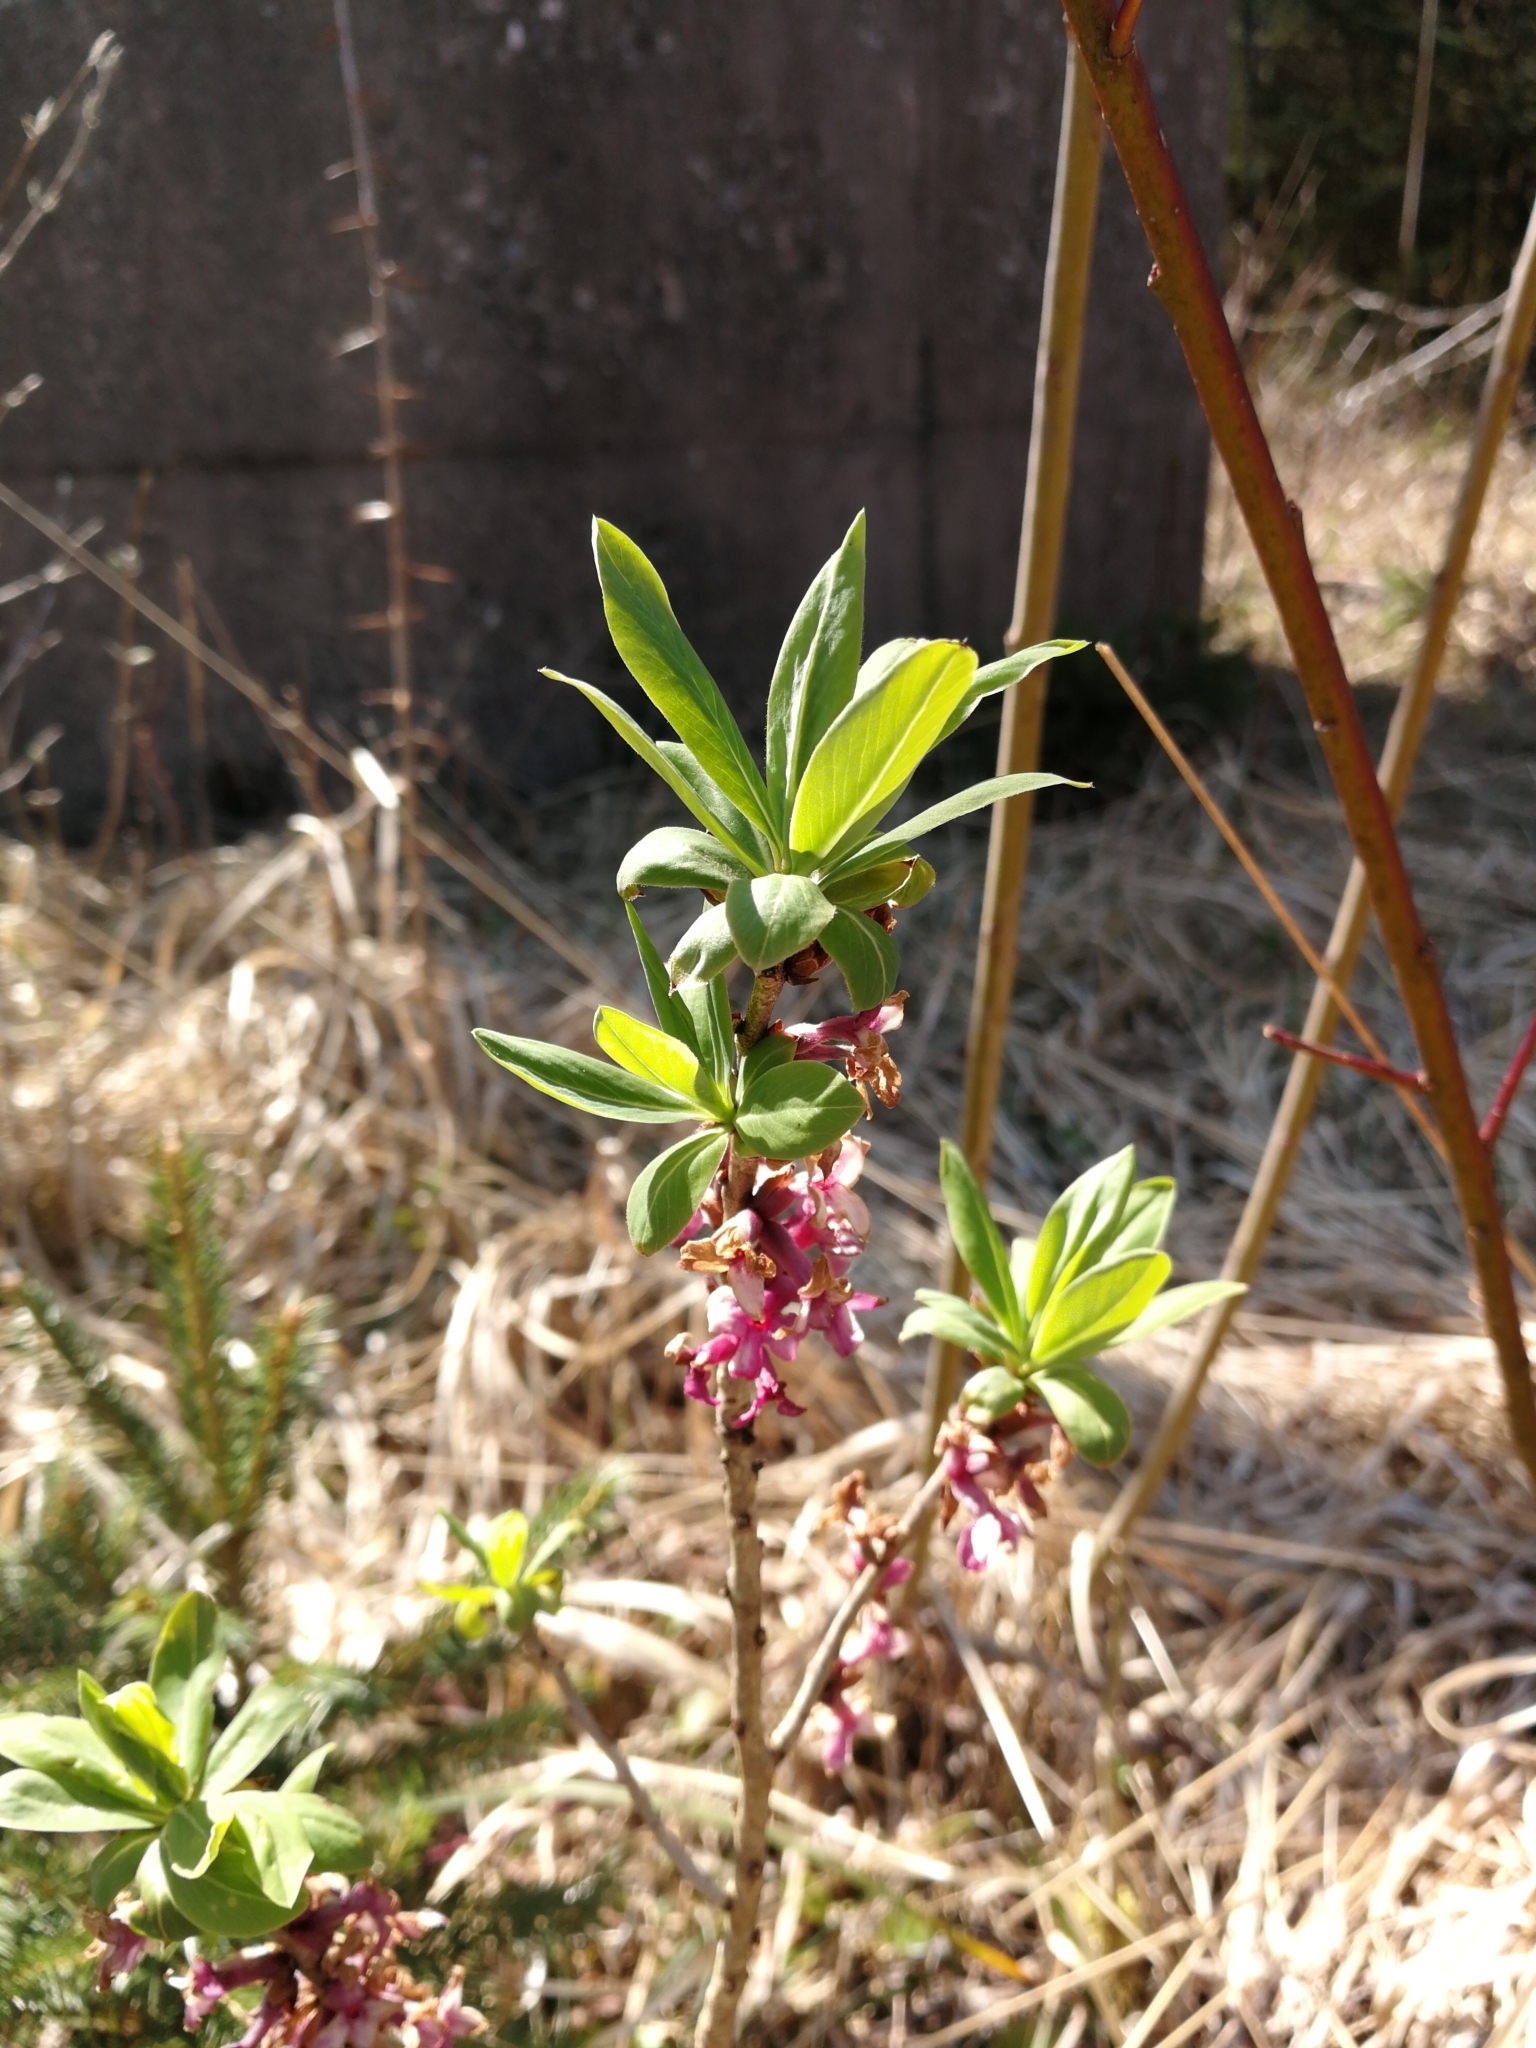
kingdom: Plantae
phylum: Tracheophyta
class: Magnoliopsida
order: Malvales
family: Thymelaeaceae
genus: Daphne
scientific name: Daphne mezereum
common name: Mezereon
